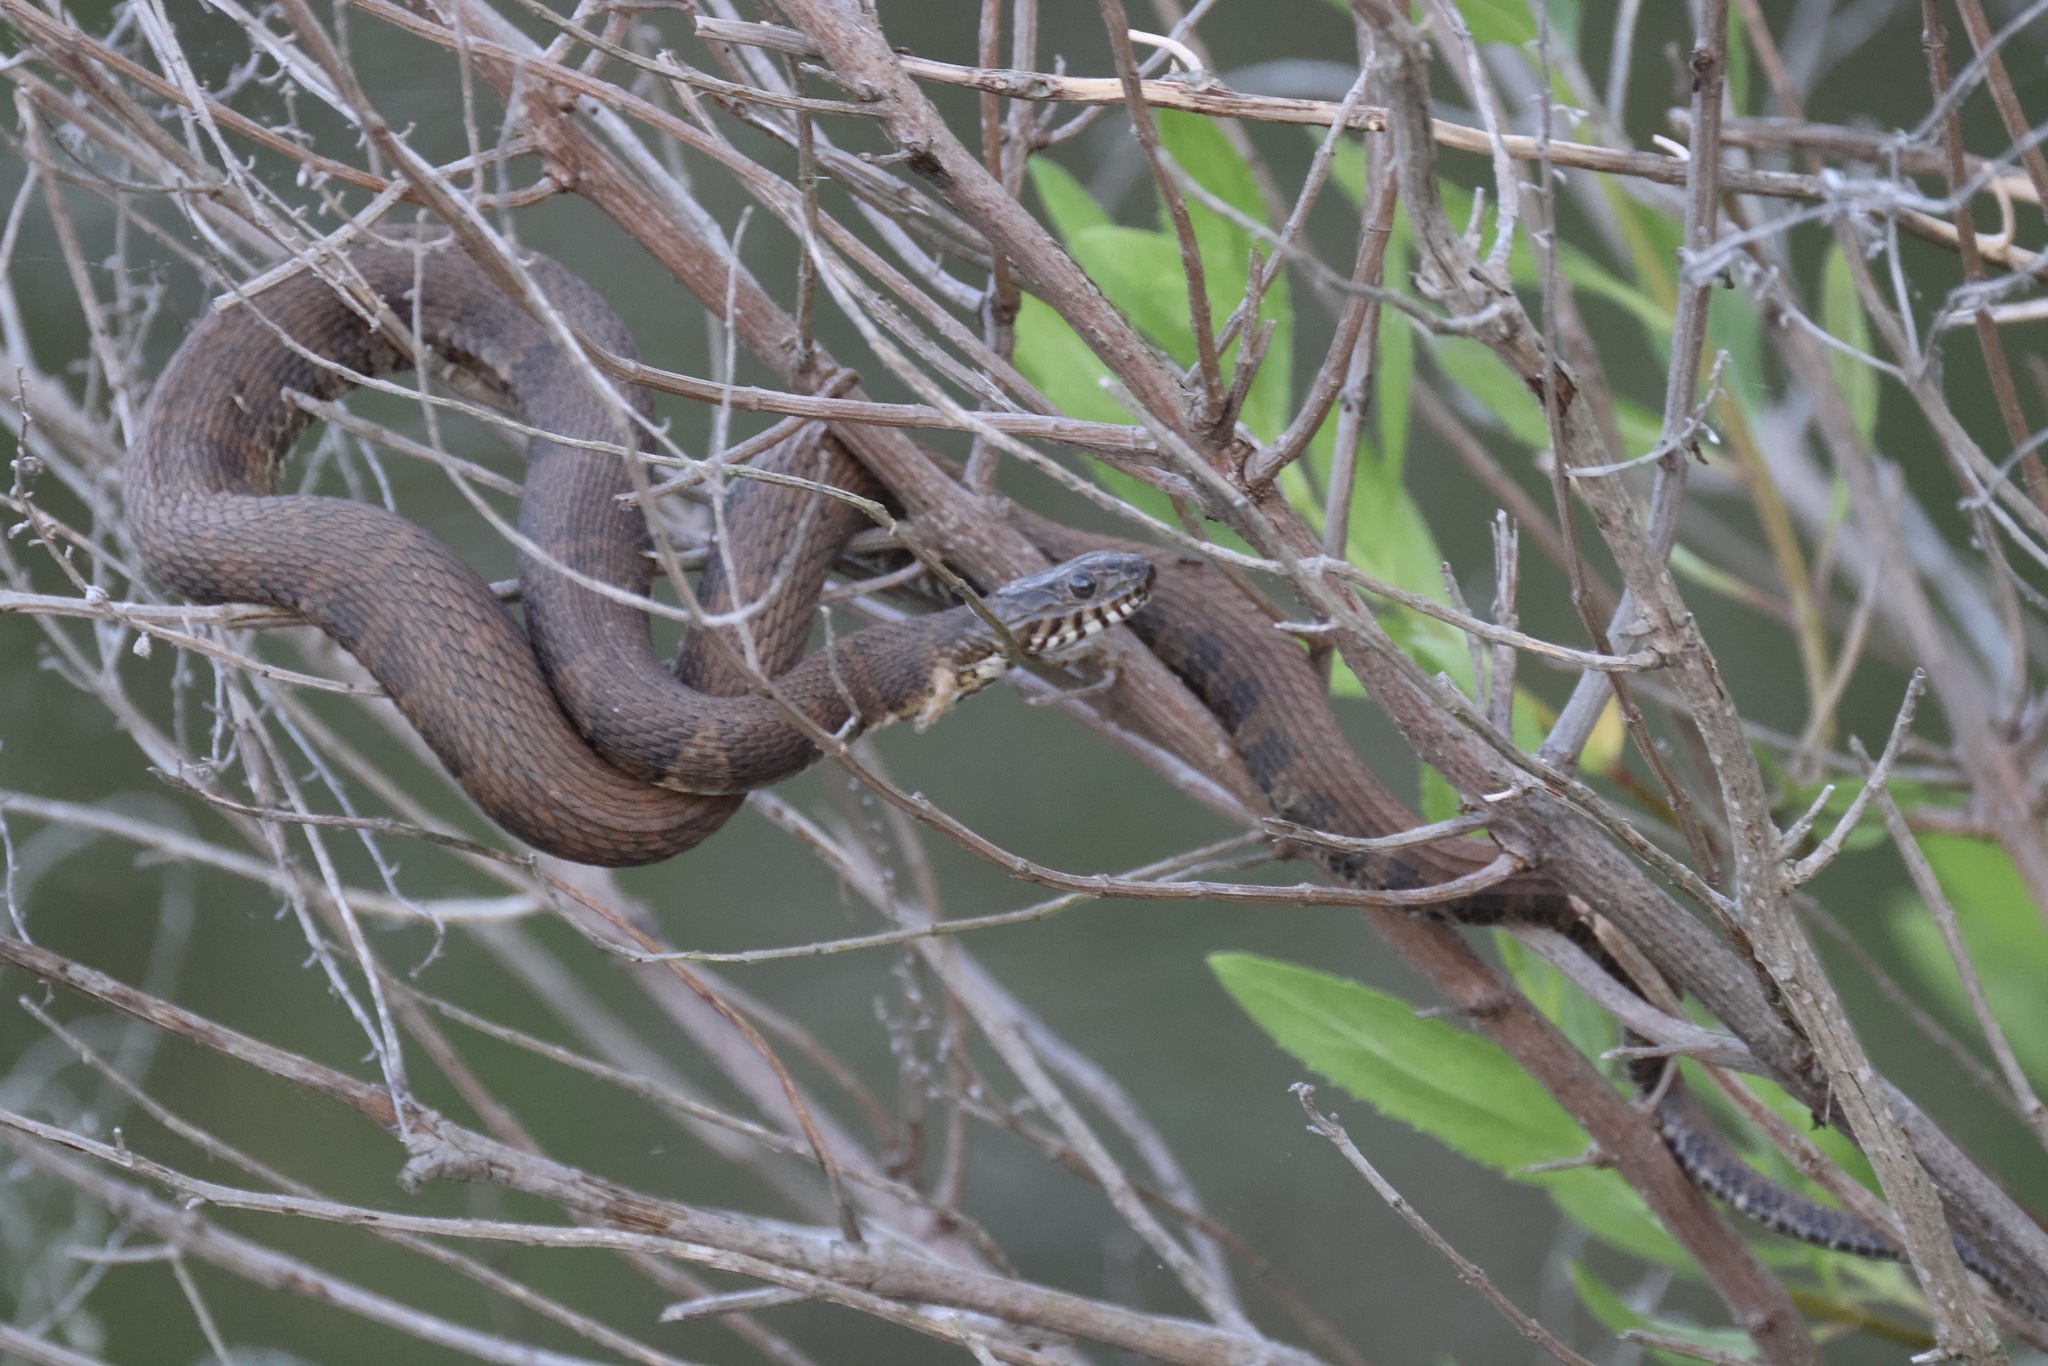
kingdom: Animalia
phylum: Chordata
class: Squamata
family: Colubridae
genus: Nerodia
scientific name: Nerodia sipedon
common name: Northern water snake
